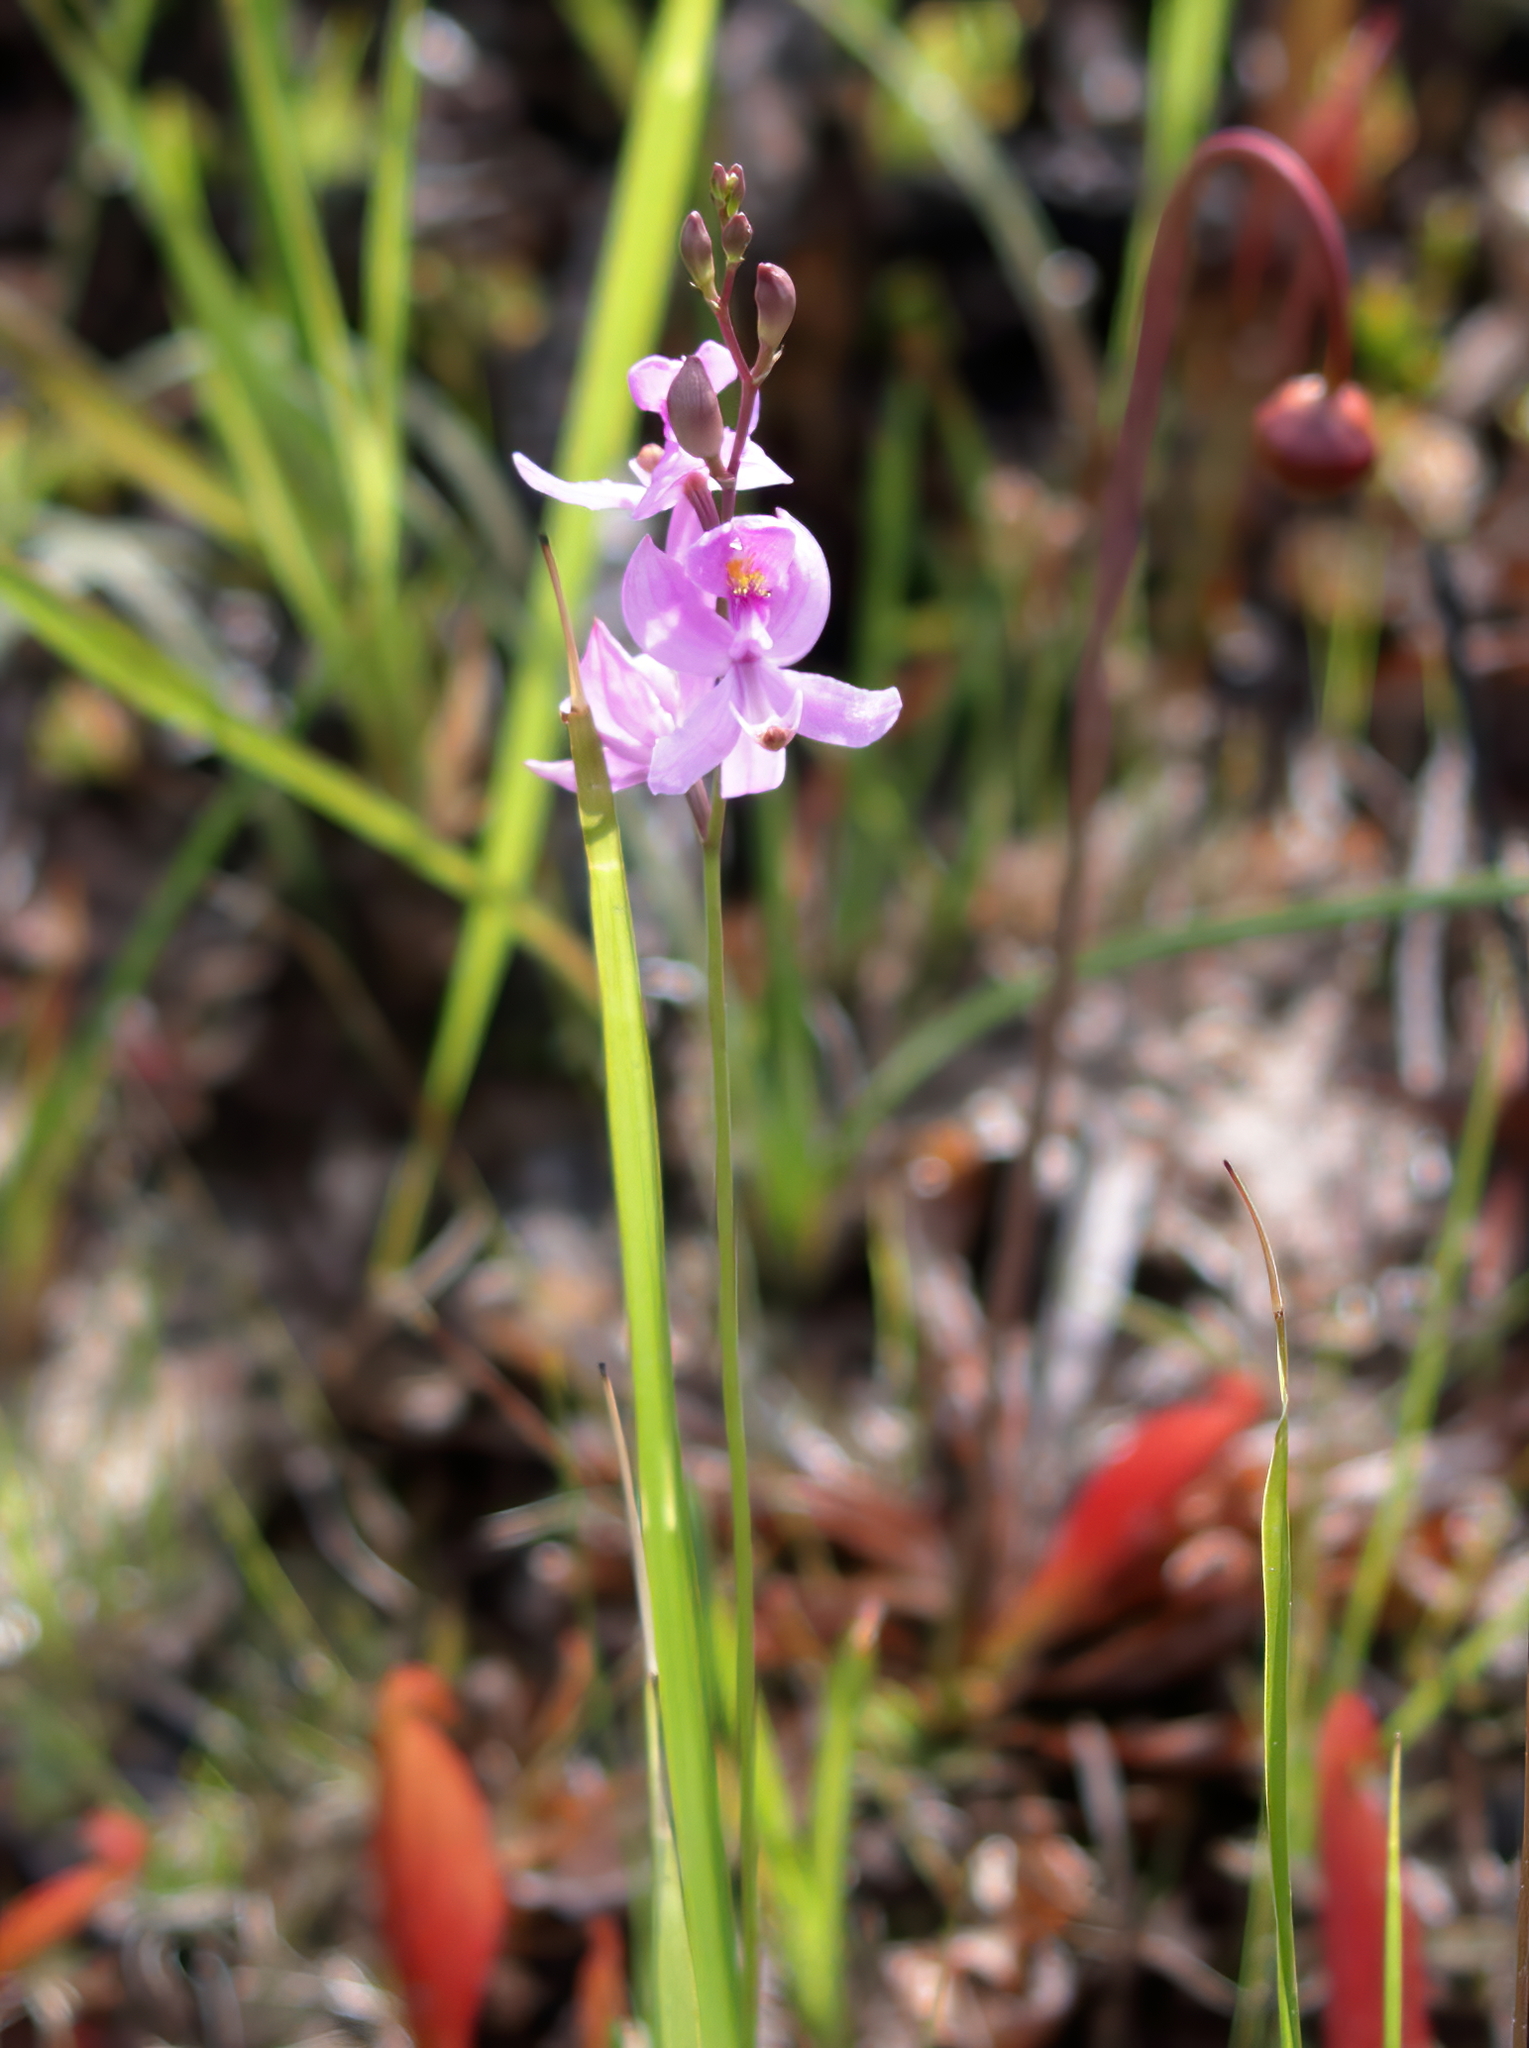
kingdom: Plantae
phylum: Tracheophyta
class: Liliopsida
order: Asparagales
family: Orchidaceae
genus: Calopogon
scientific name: Calopogon pallidus
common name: Pale grasspink
